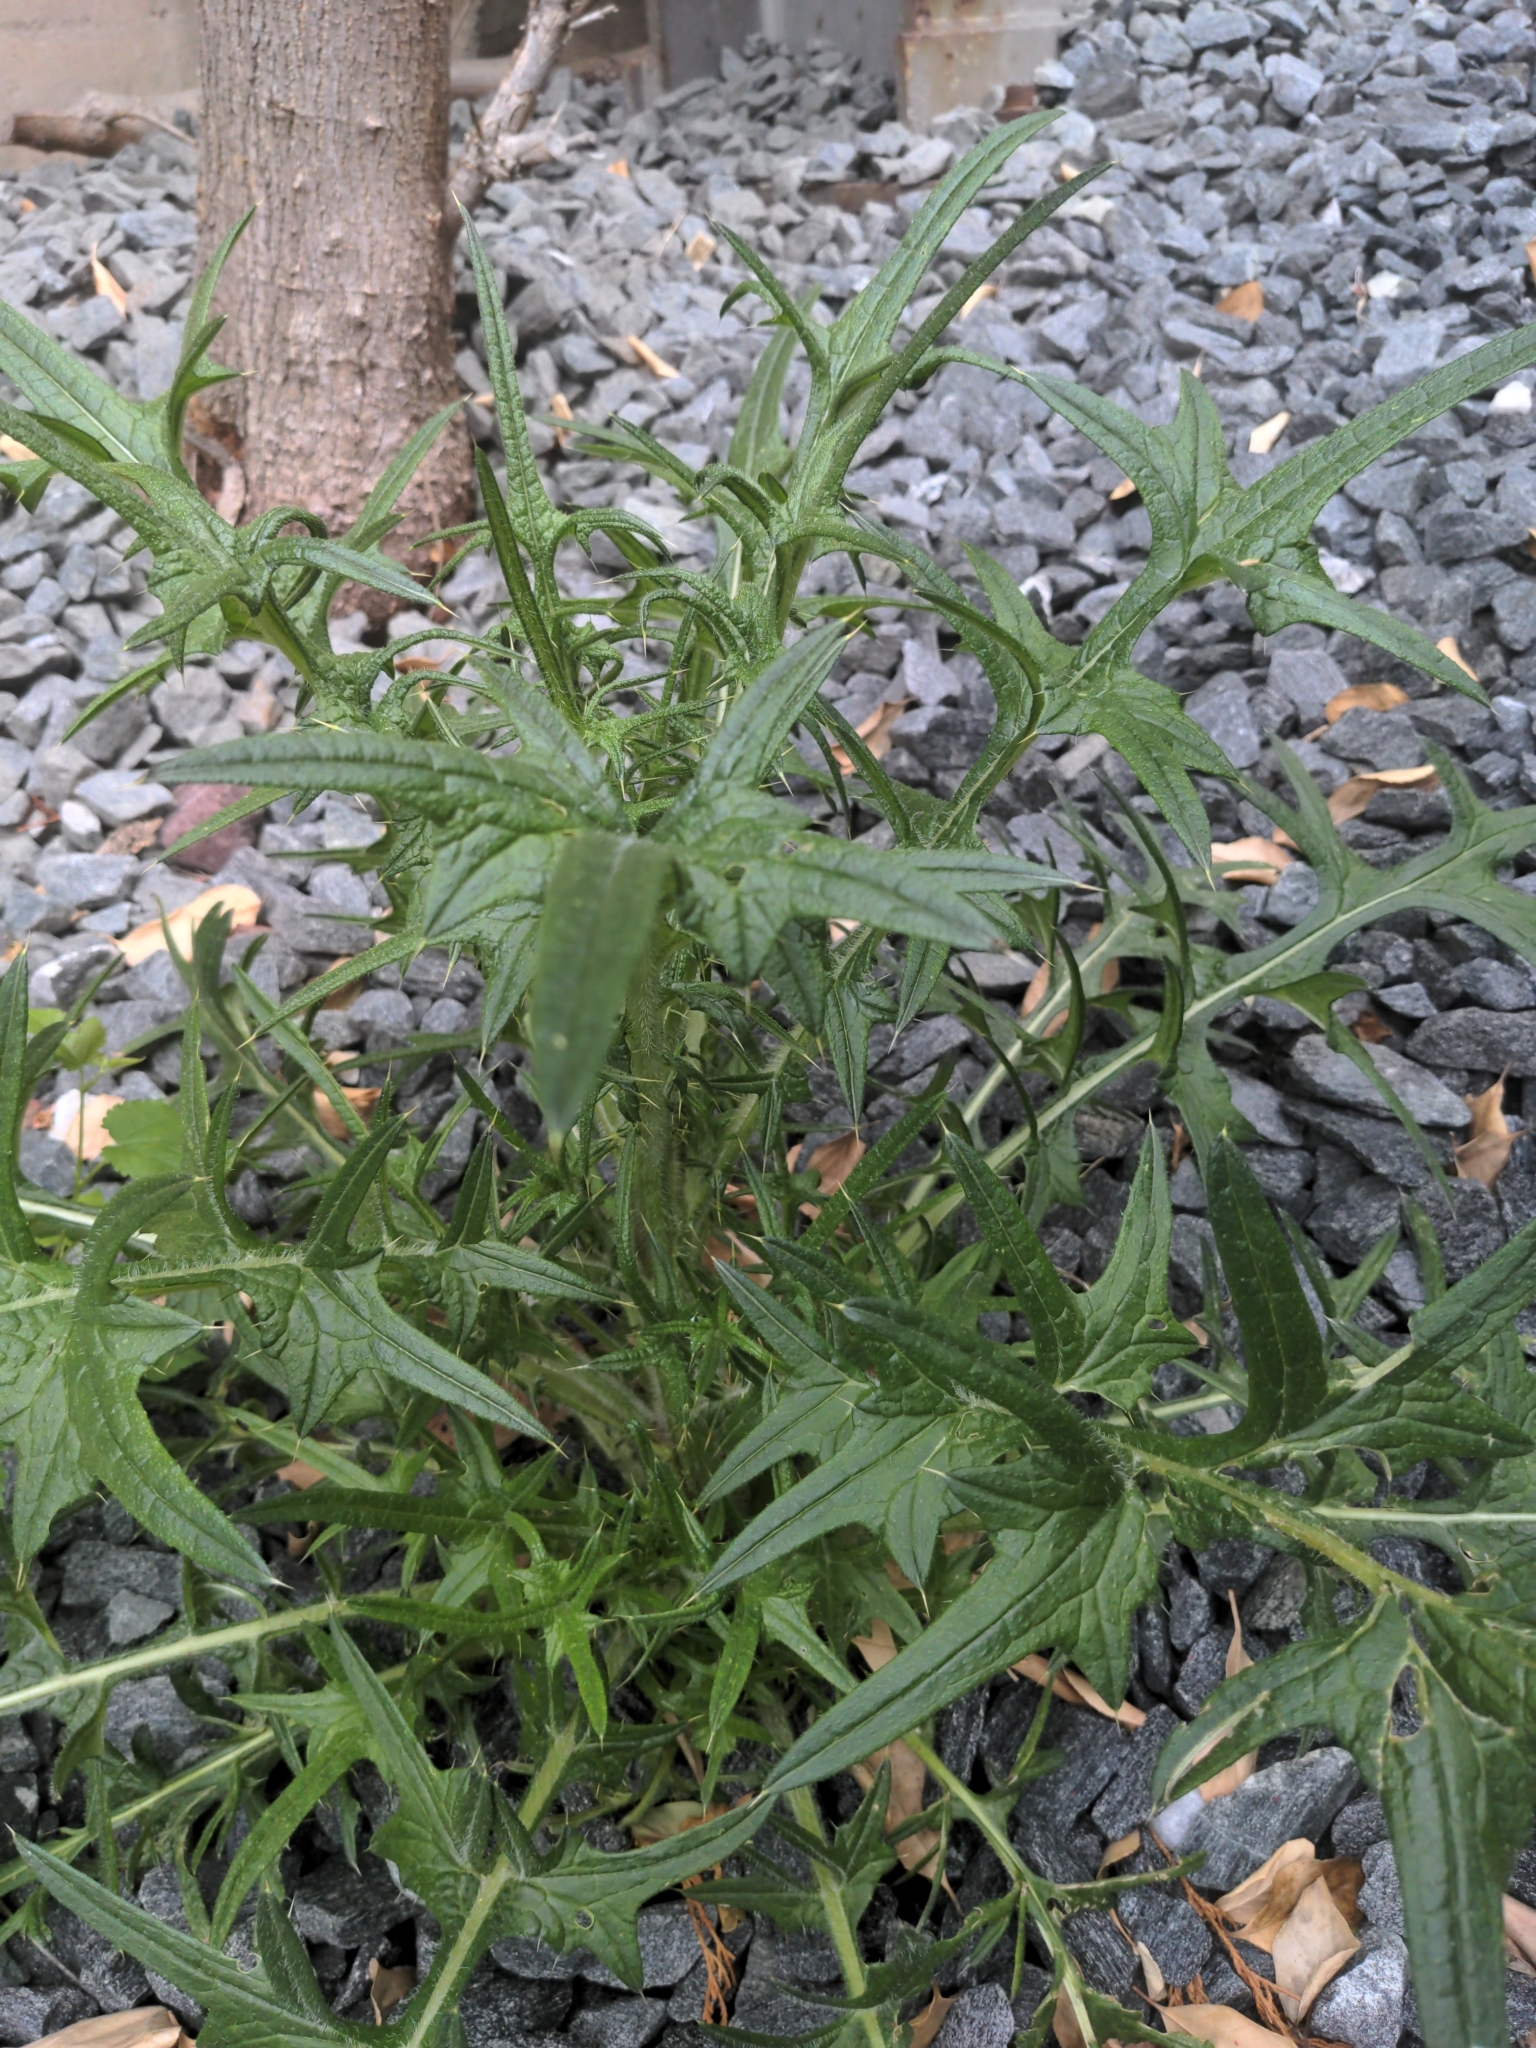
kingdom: Plantae
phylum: Tracheophyta
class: Magnoliopsida
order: Asterales
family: Asteraceae
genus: Cirsium
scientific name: Cirsium vulgare
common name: Bull thistle
